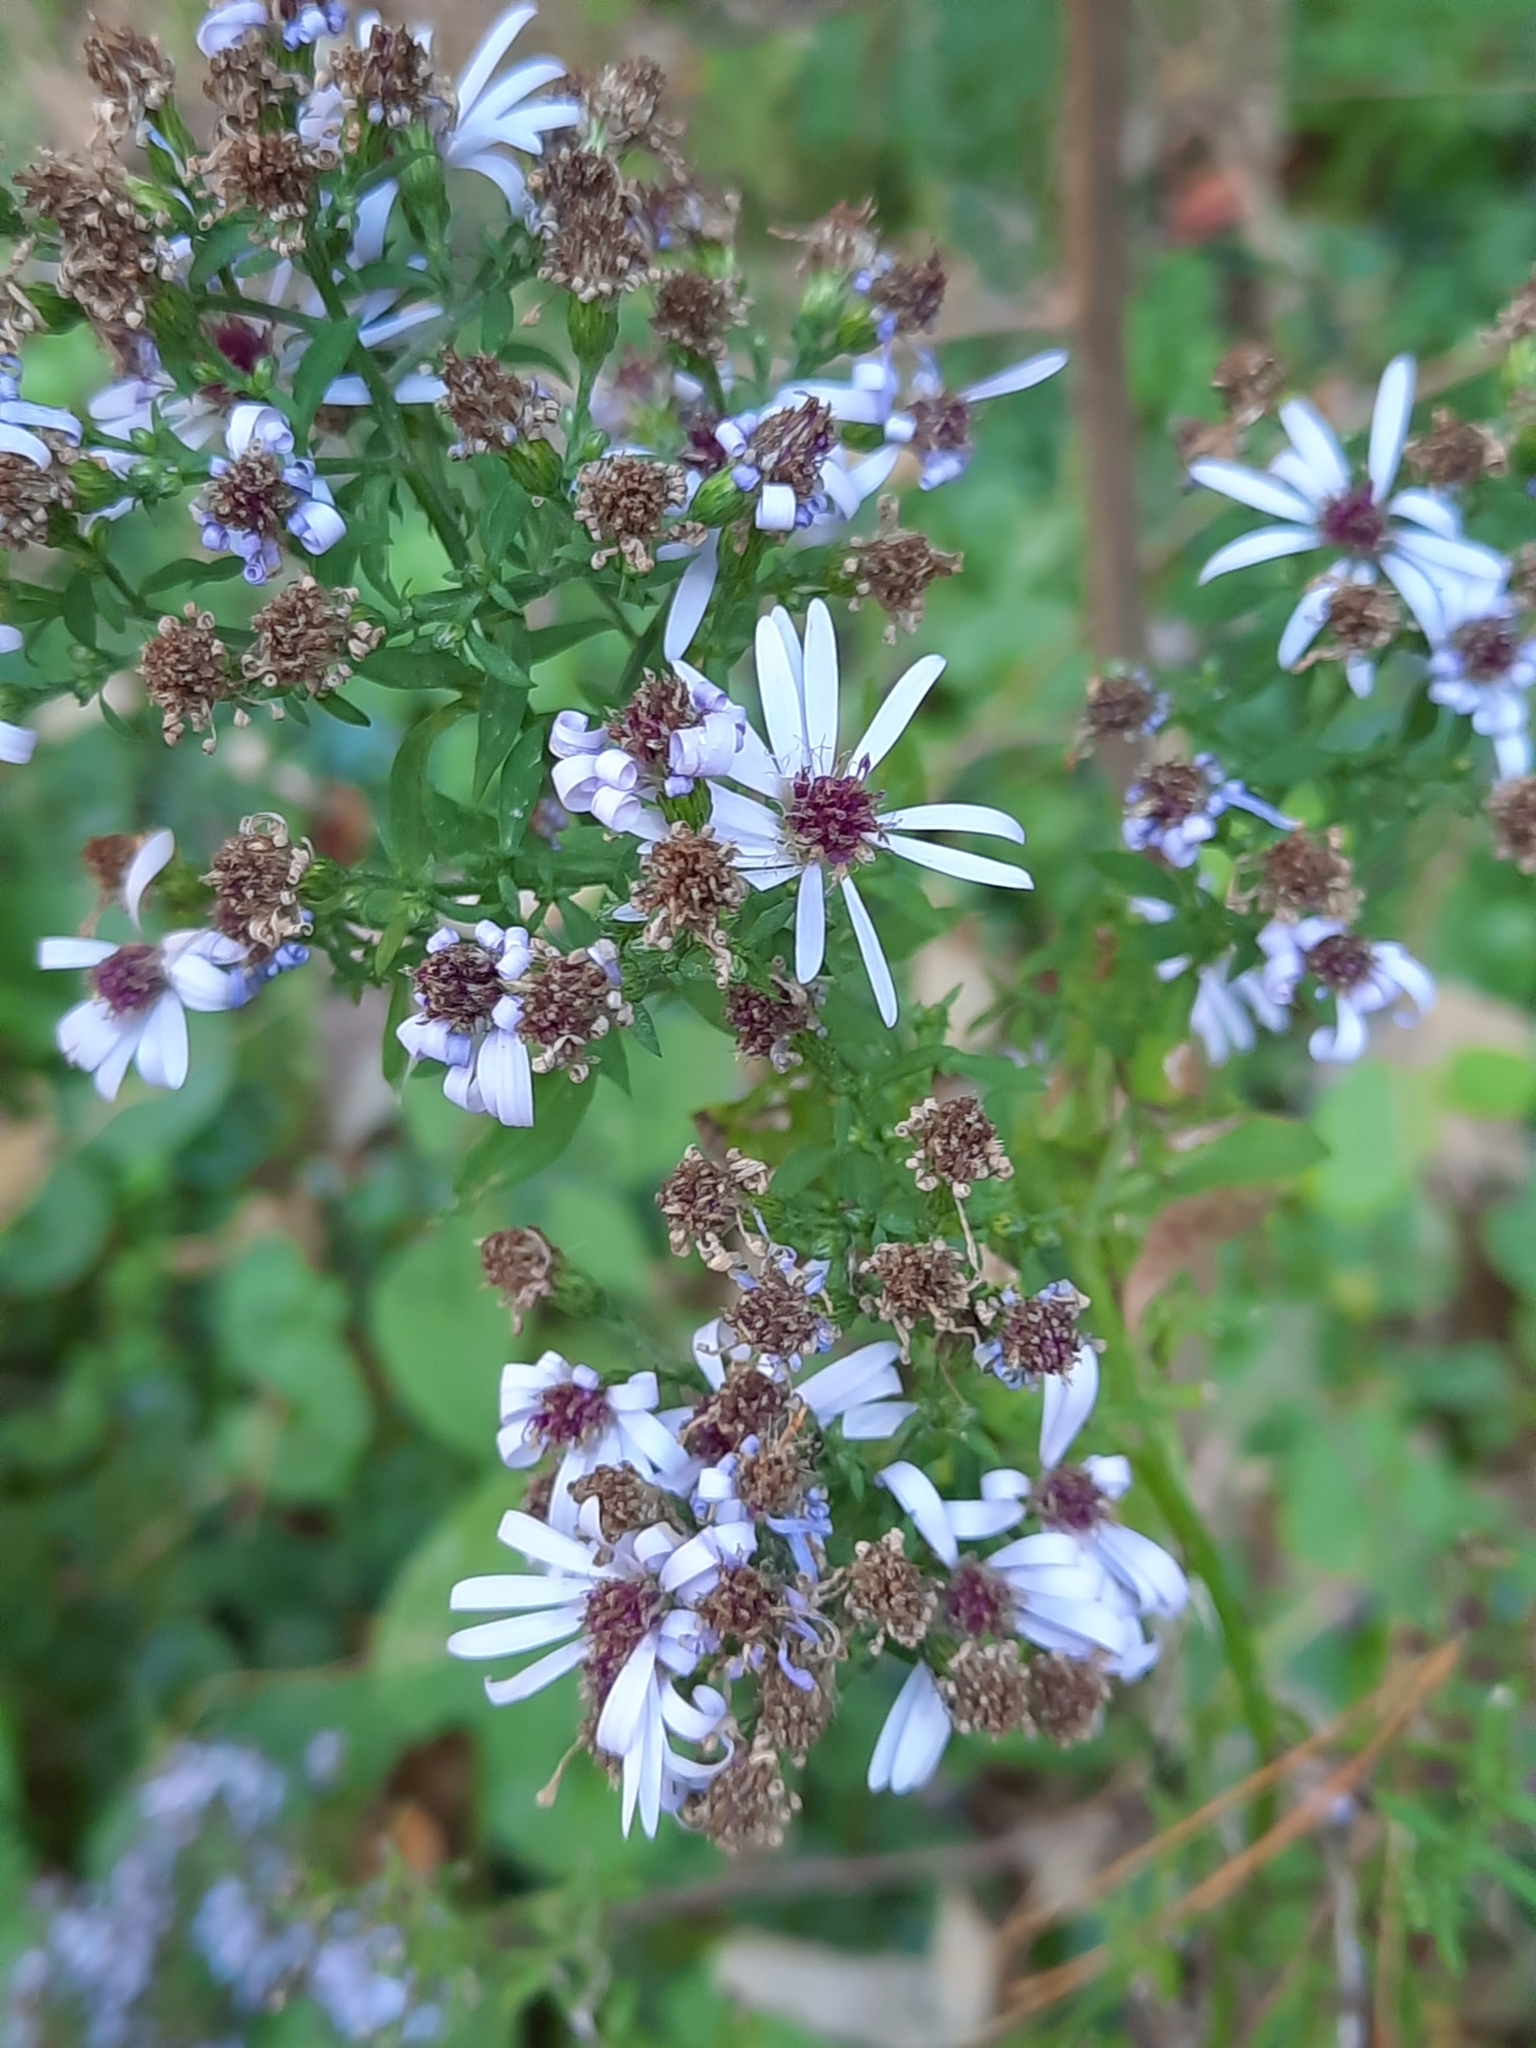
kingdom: Plantae
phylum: Tracheophyta
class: Magnoliopsida
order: Asterales
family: Asteraceae
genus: Symphyotrichum
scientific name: Symphyotrichum cordifolium
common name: Beeweed
